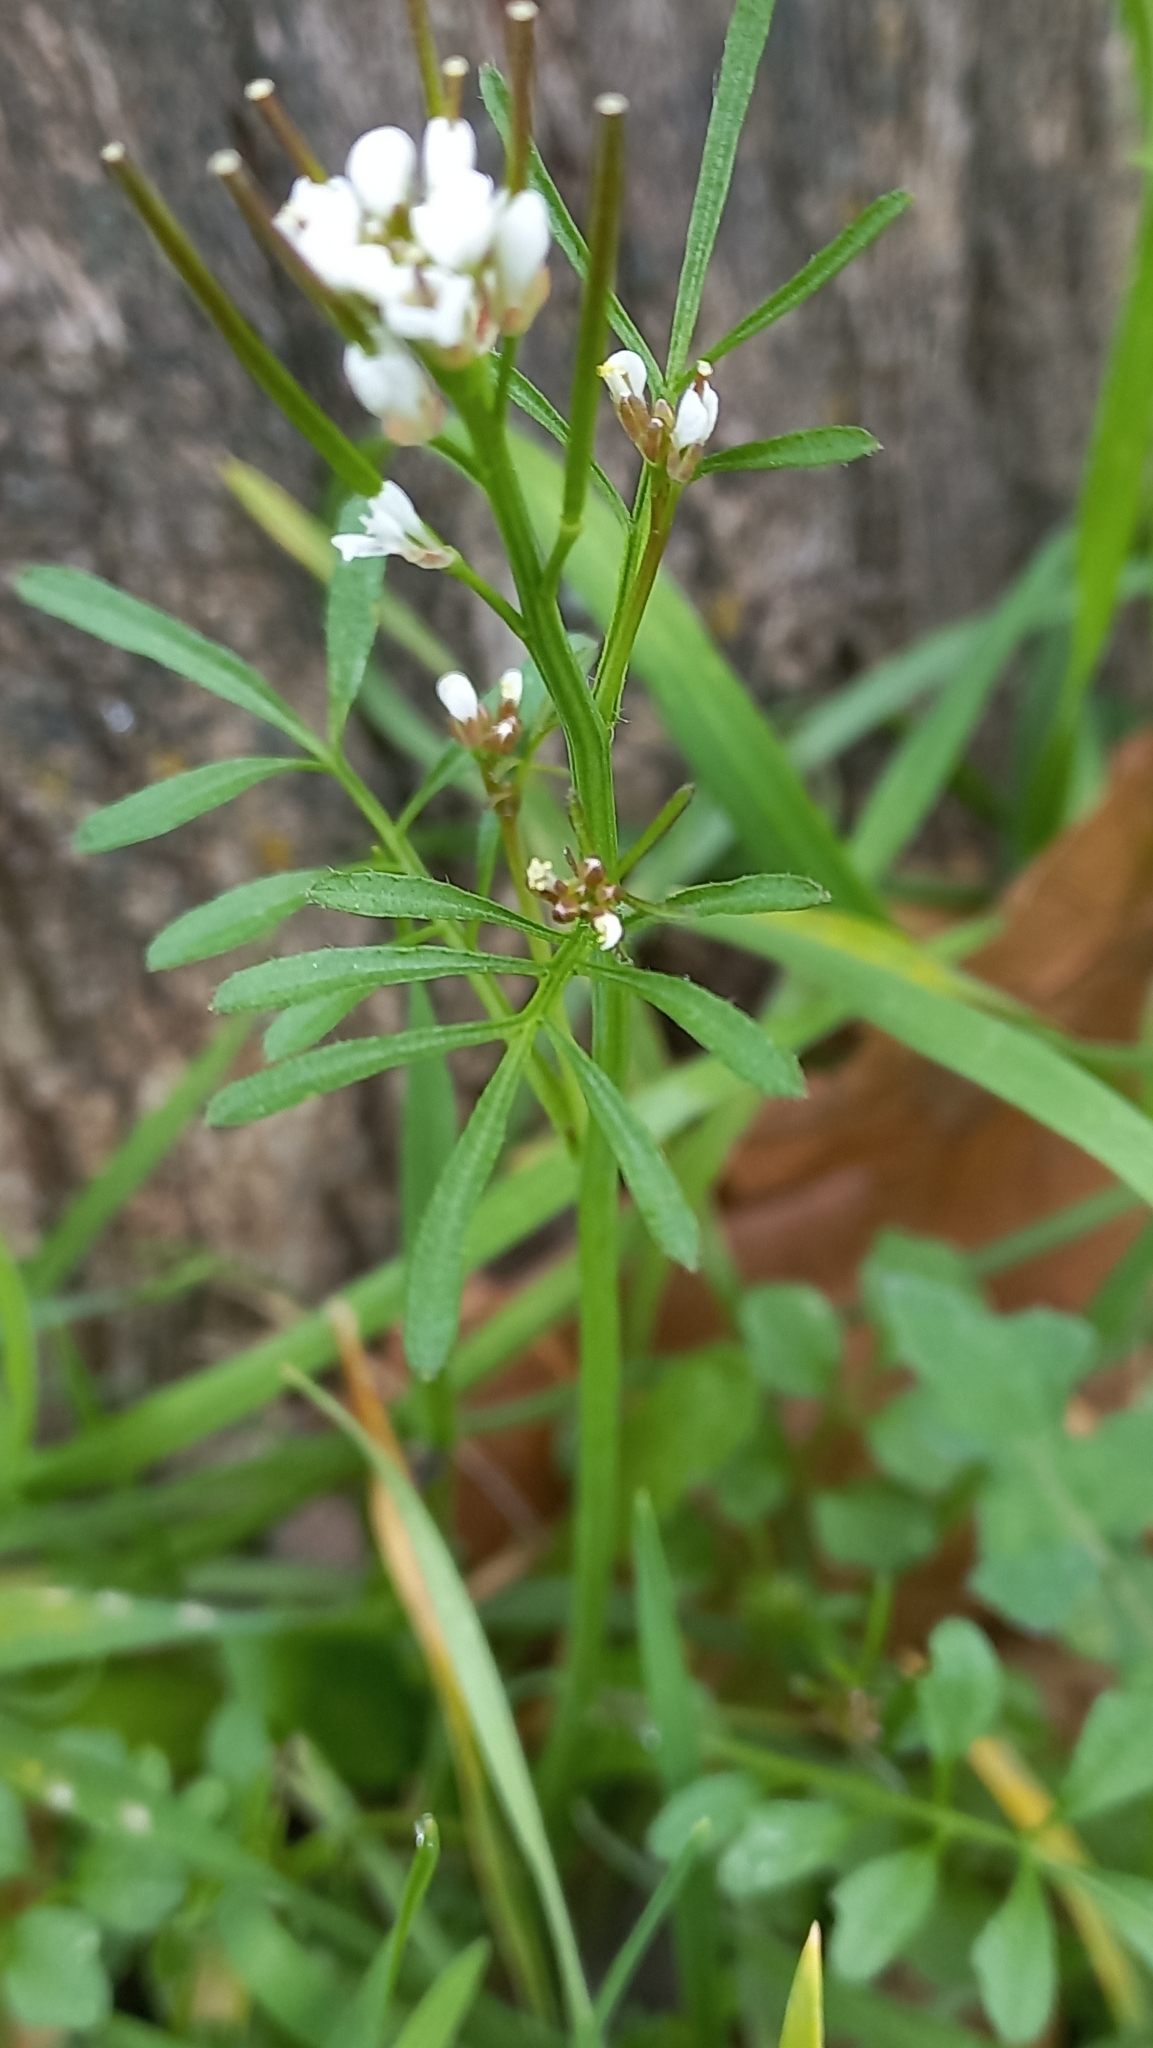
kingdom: Plantae
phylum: Tracheophyta
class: Magnoliopsida
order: Brassicales
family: Brassicaceae
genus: Cardamine
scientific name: Cardamine hirsuta
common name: Hairy bittercress
